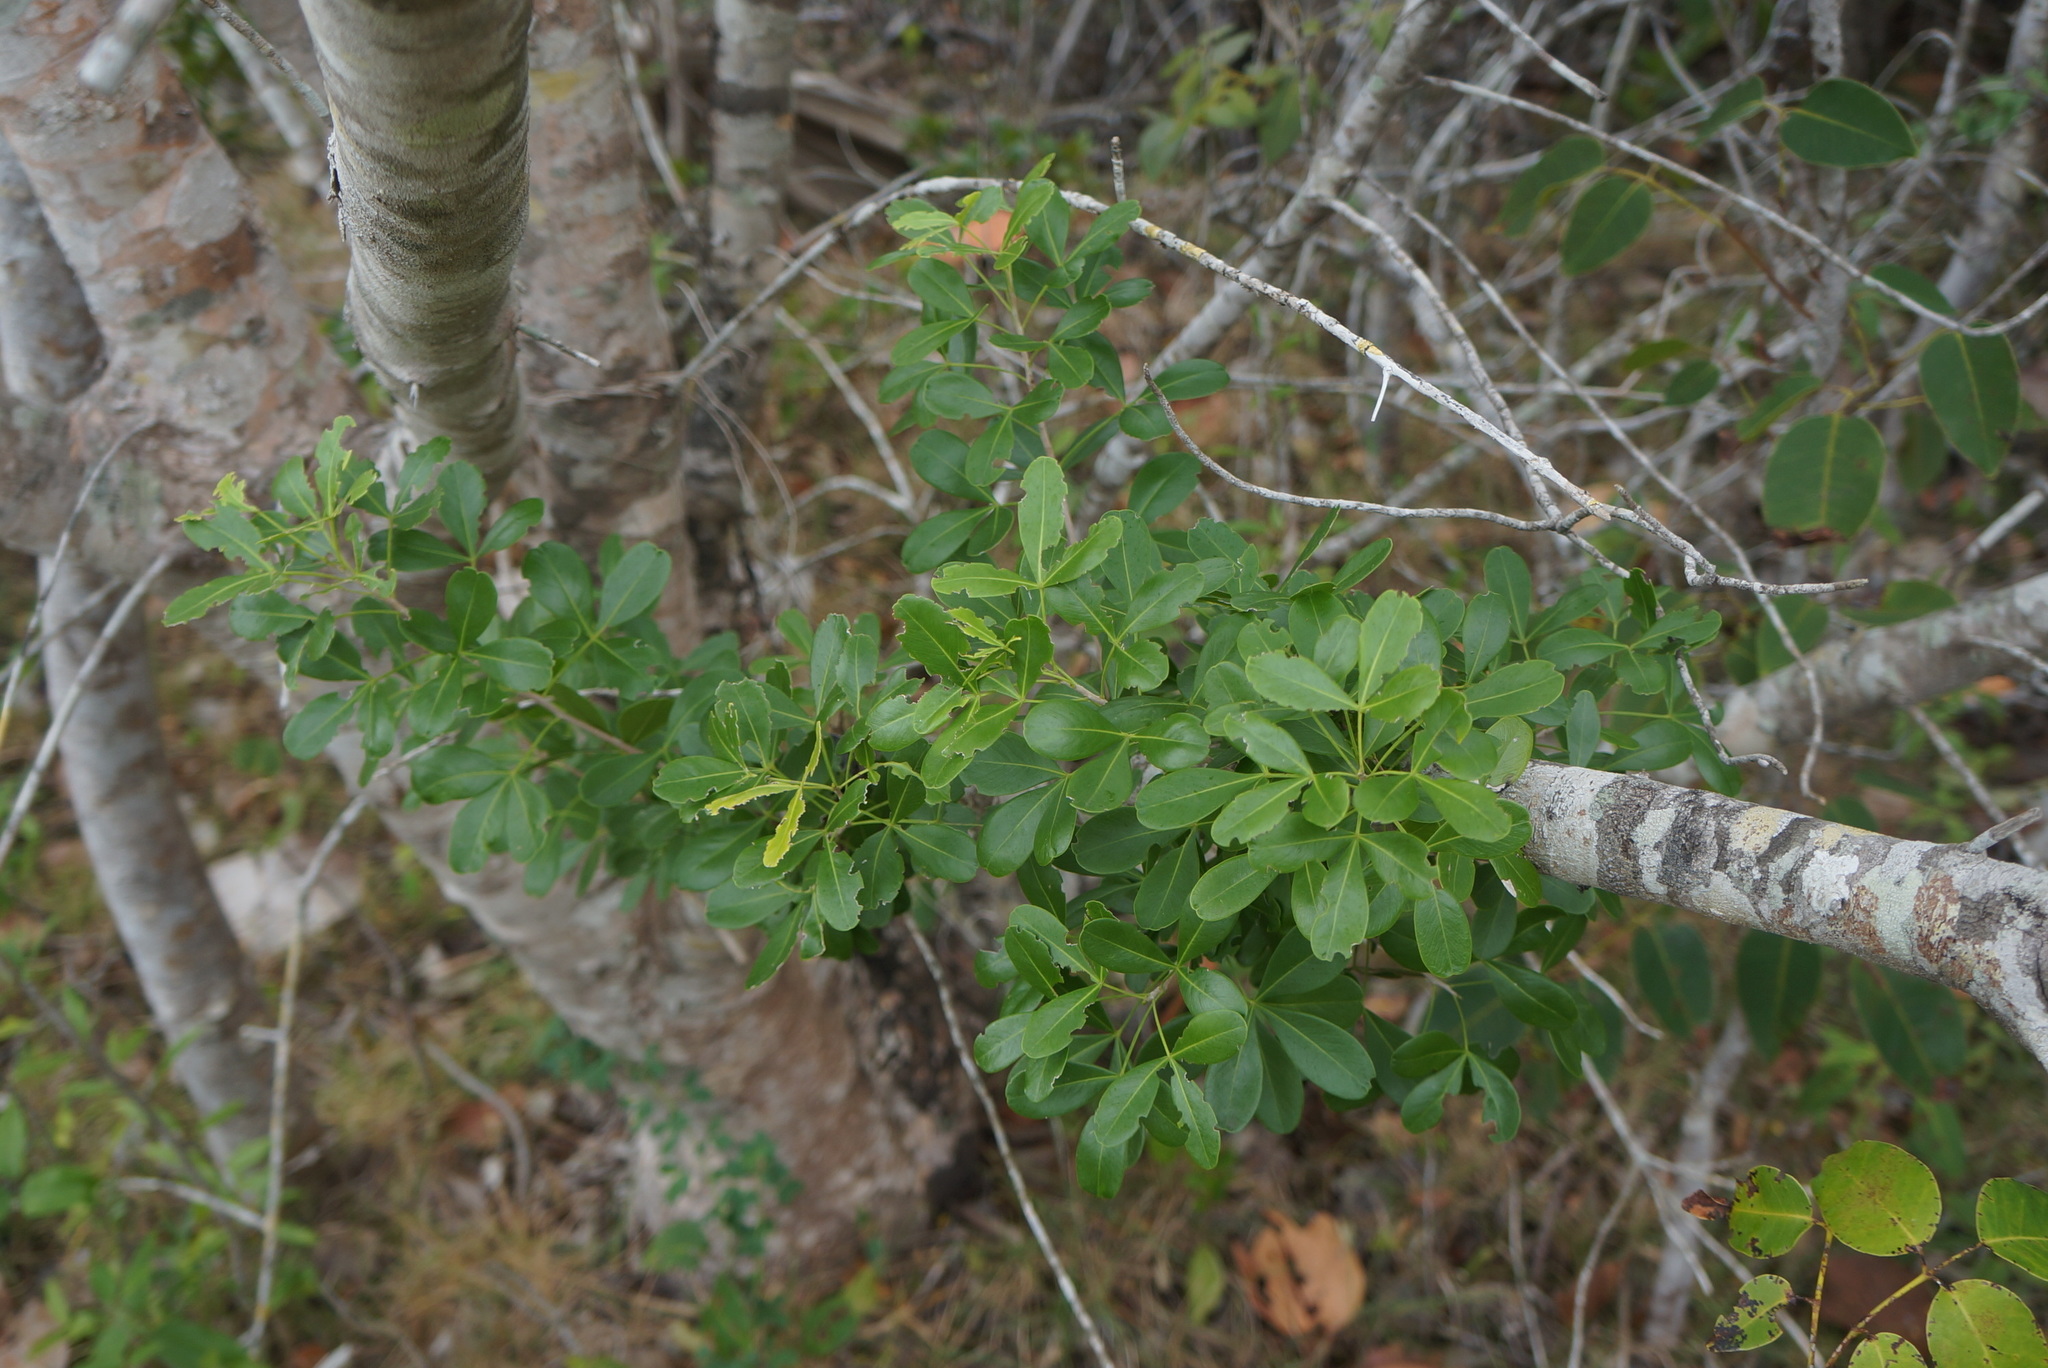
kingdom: Plantae
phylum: Tracheophyta
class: Magnoliopsida
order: Sapindales
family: Sapindaceae
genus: Hypelate
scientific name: Hypelate trifoliata
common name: Inkwood
